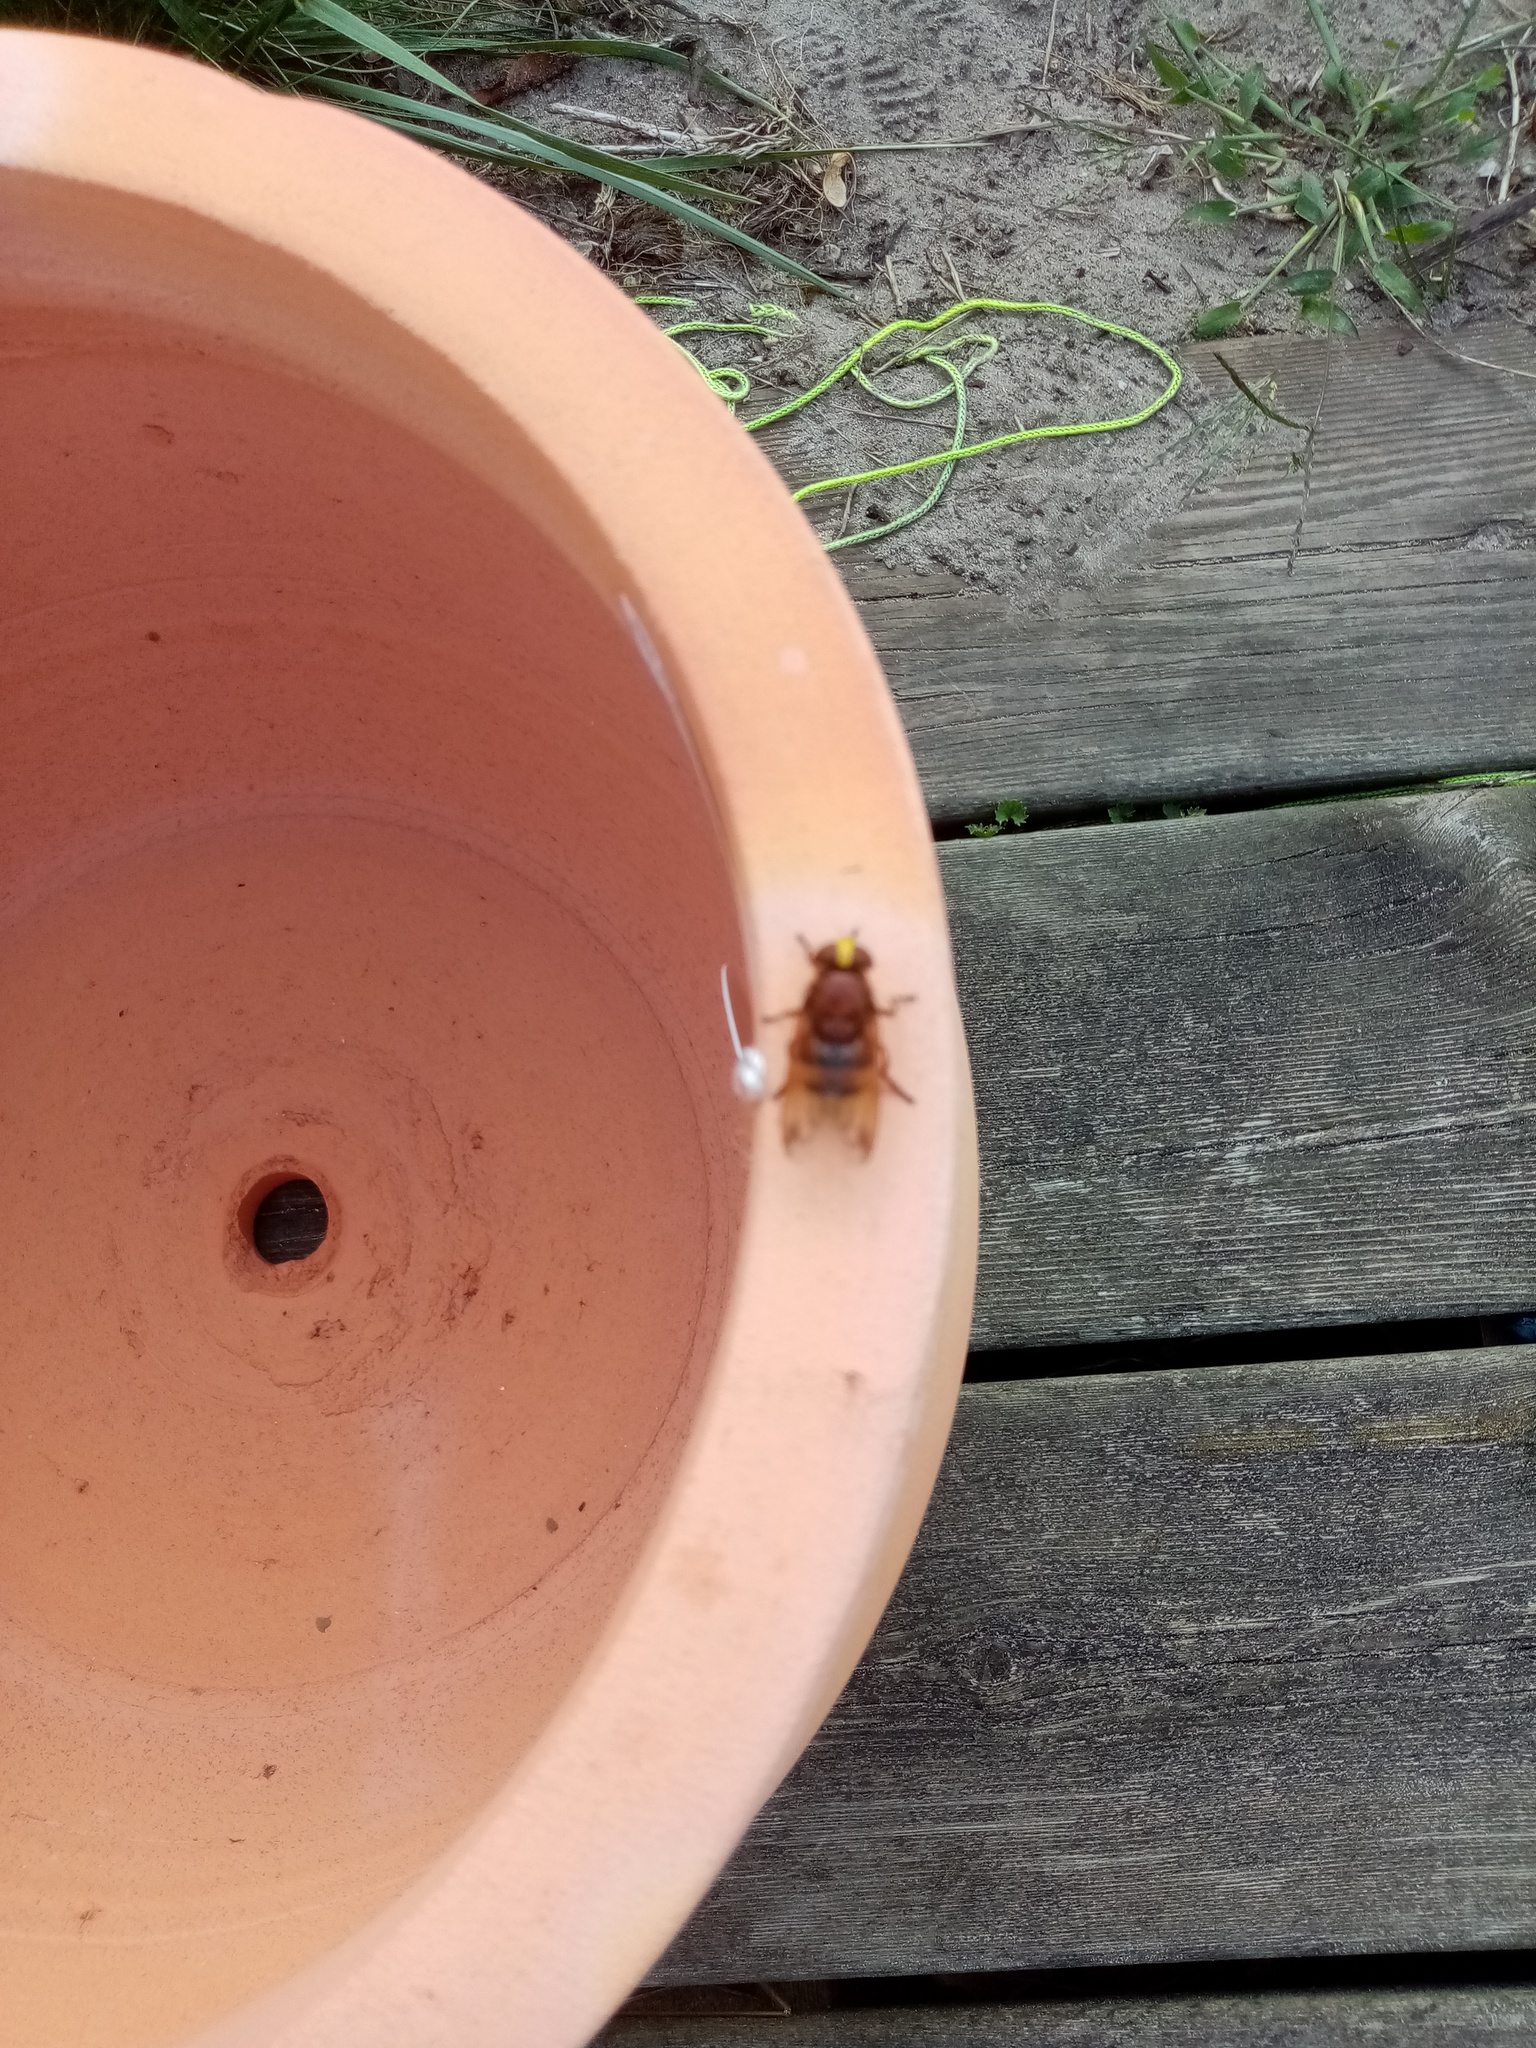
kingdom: Animalia
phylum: Arthropoda
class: Insecta
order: Diptera
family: Syrphidae
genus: Volucella
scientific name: Volucella zonaria
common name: Hornet hoverfly
